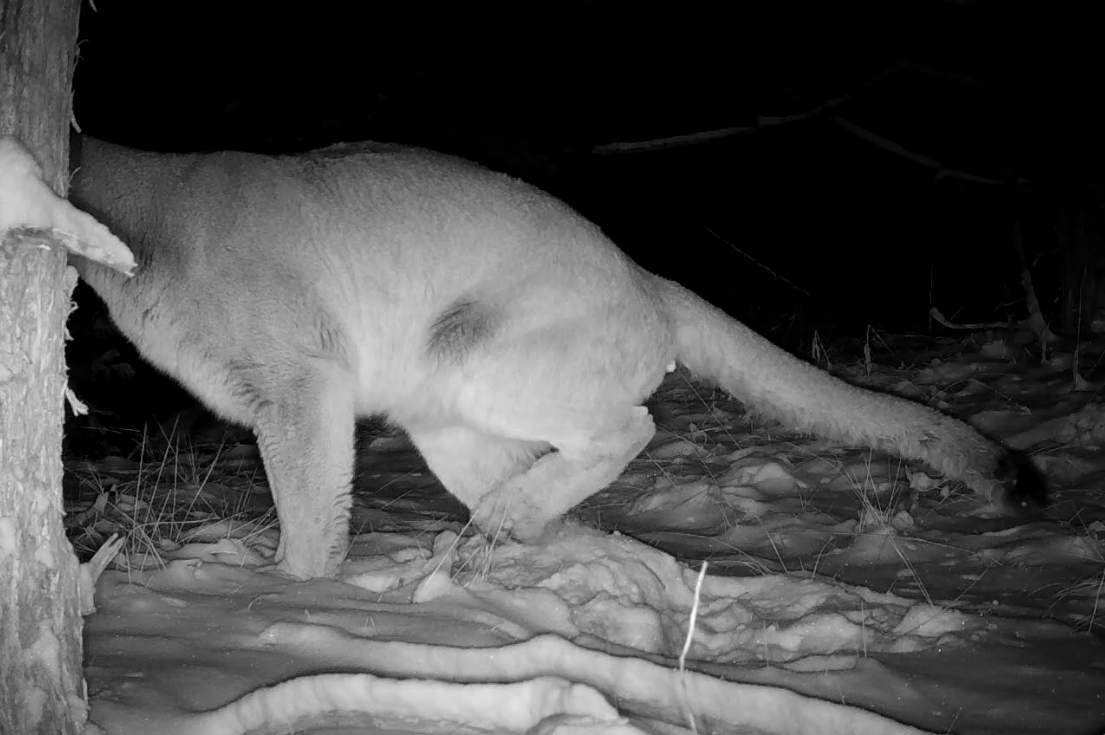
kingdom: Animalia
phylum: Chordata
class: Mammalia
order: Carnivora
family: Felidae
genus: Puma
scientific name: Puma concolor
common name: Puma
